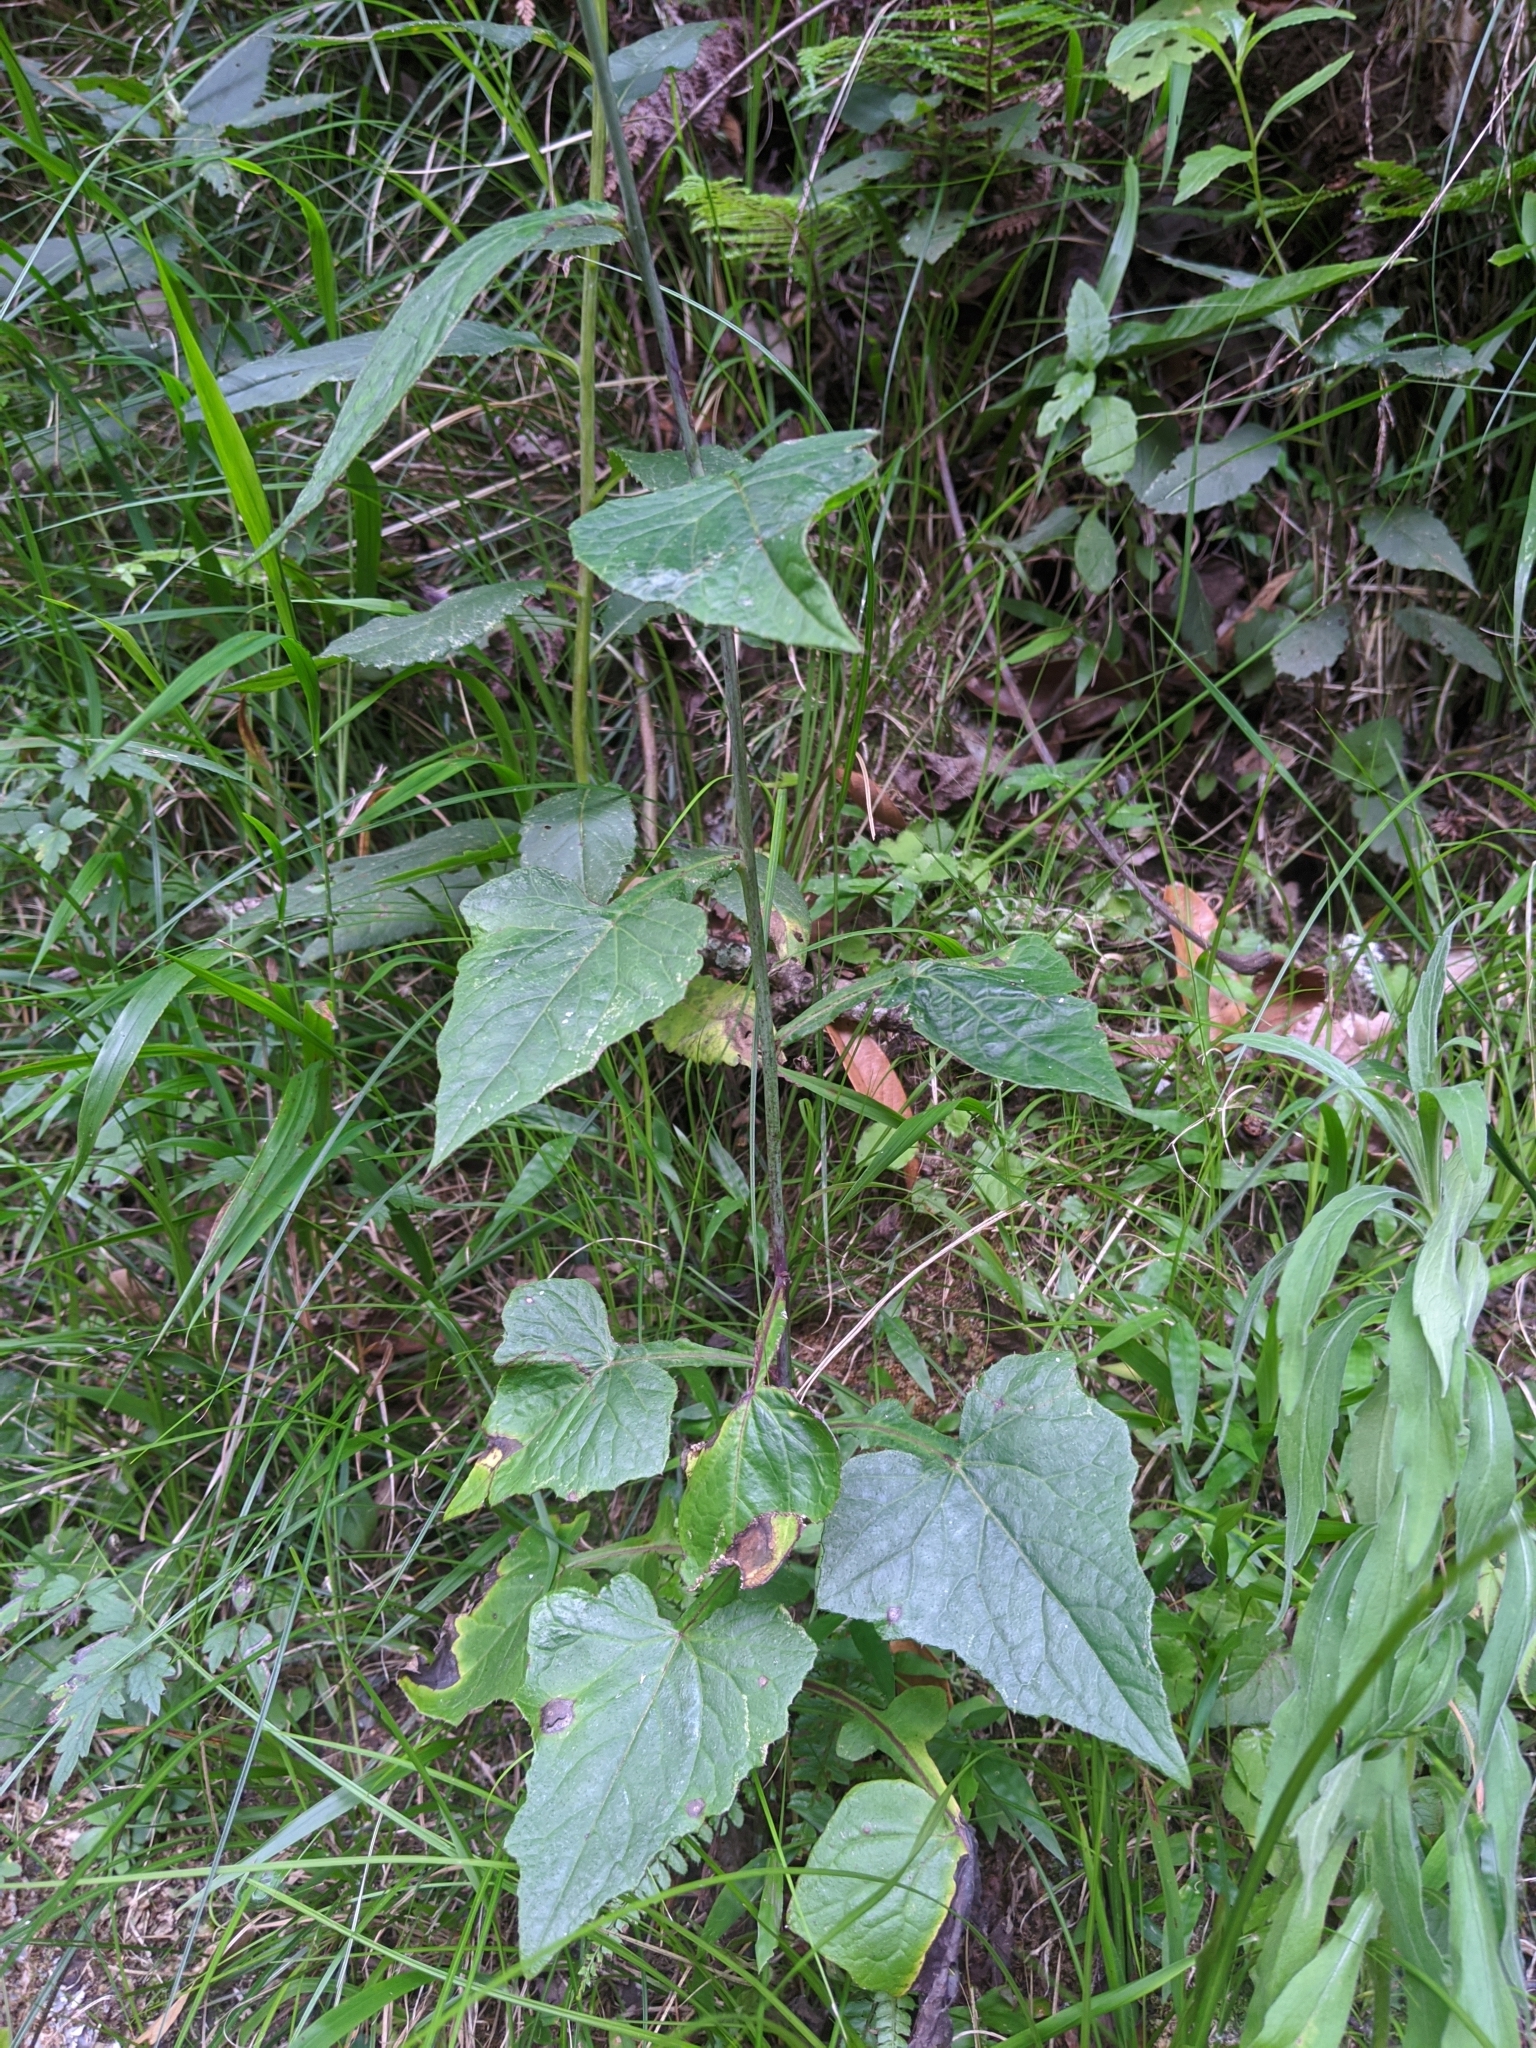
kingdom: Plantae
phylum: Tracheophyta
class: Magnoliopsida
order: Asterales
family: Asteraceae
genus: Paraprenanthes
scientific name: Paraprenanthes sororia
